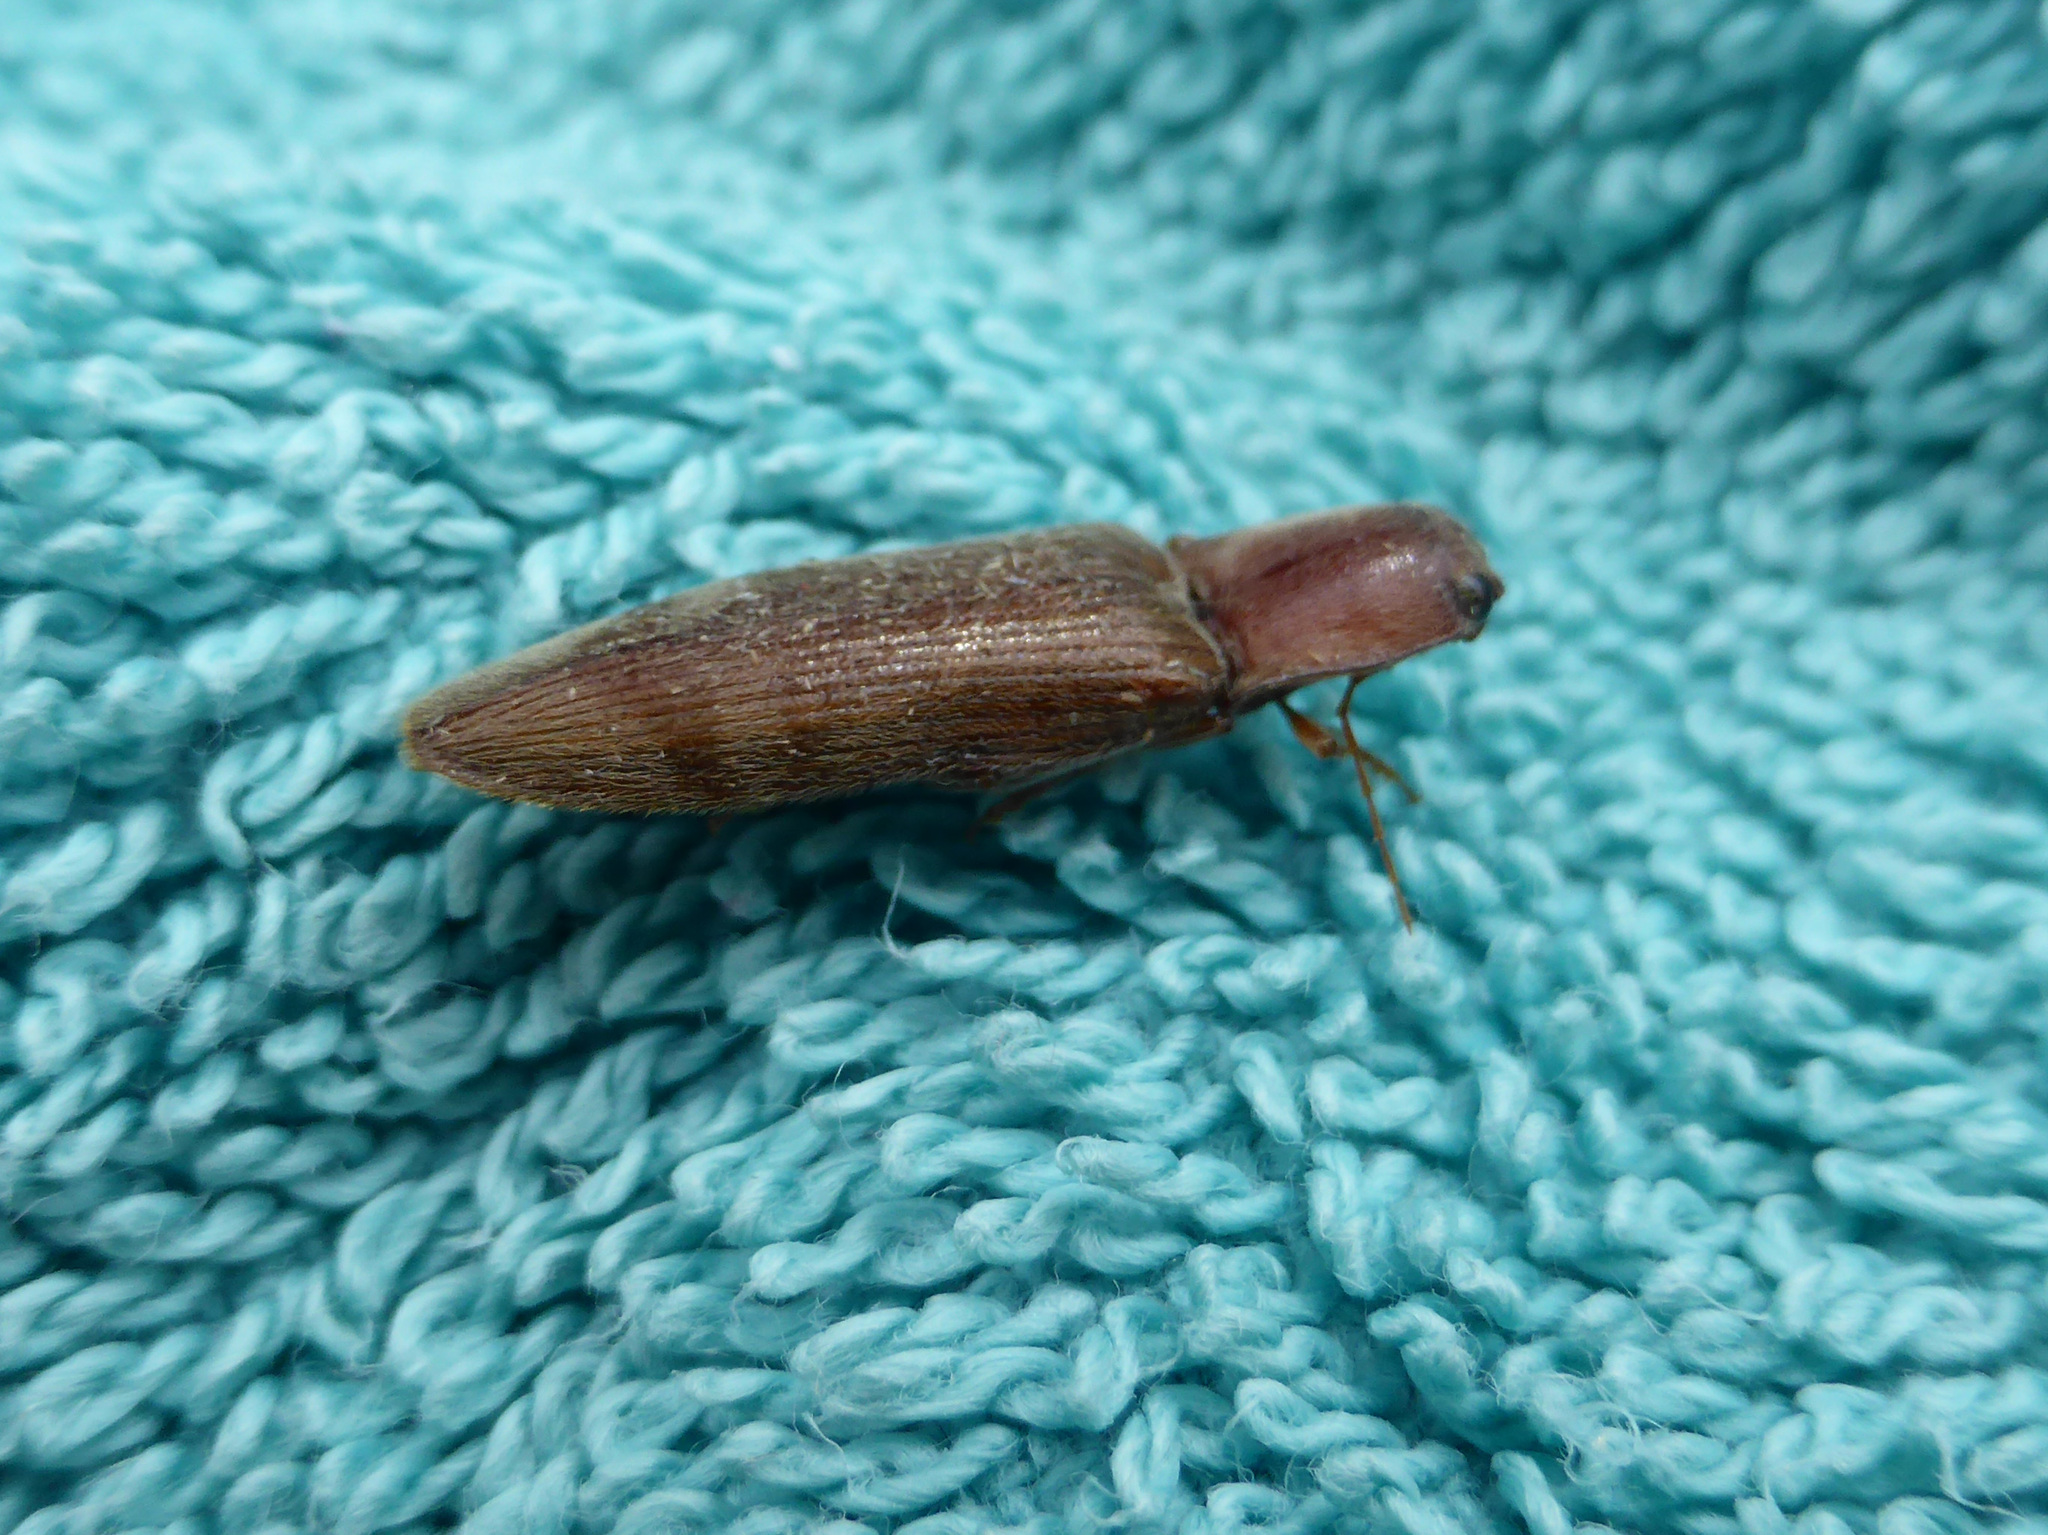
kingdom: Animalia
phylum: Arthropoda
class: Insecta
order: Coleoptera
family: Elateridae
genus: Stenagostus
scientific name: Stenagostus rhombeus
